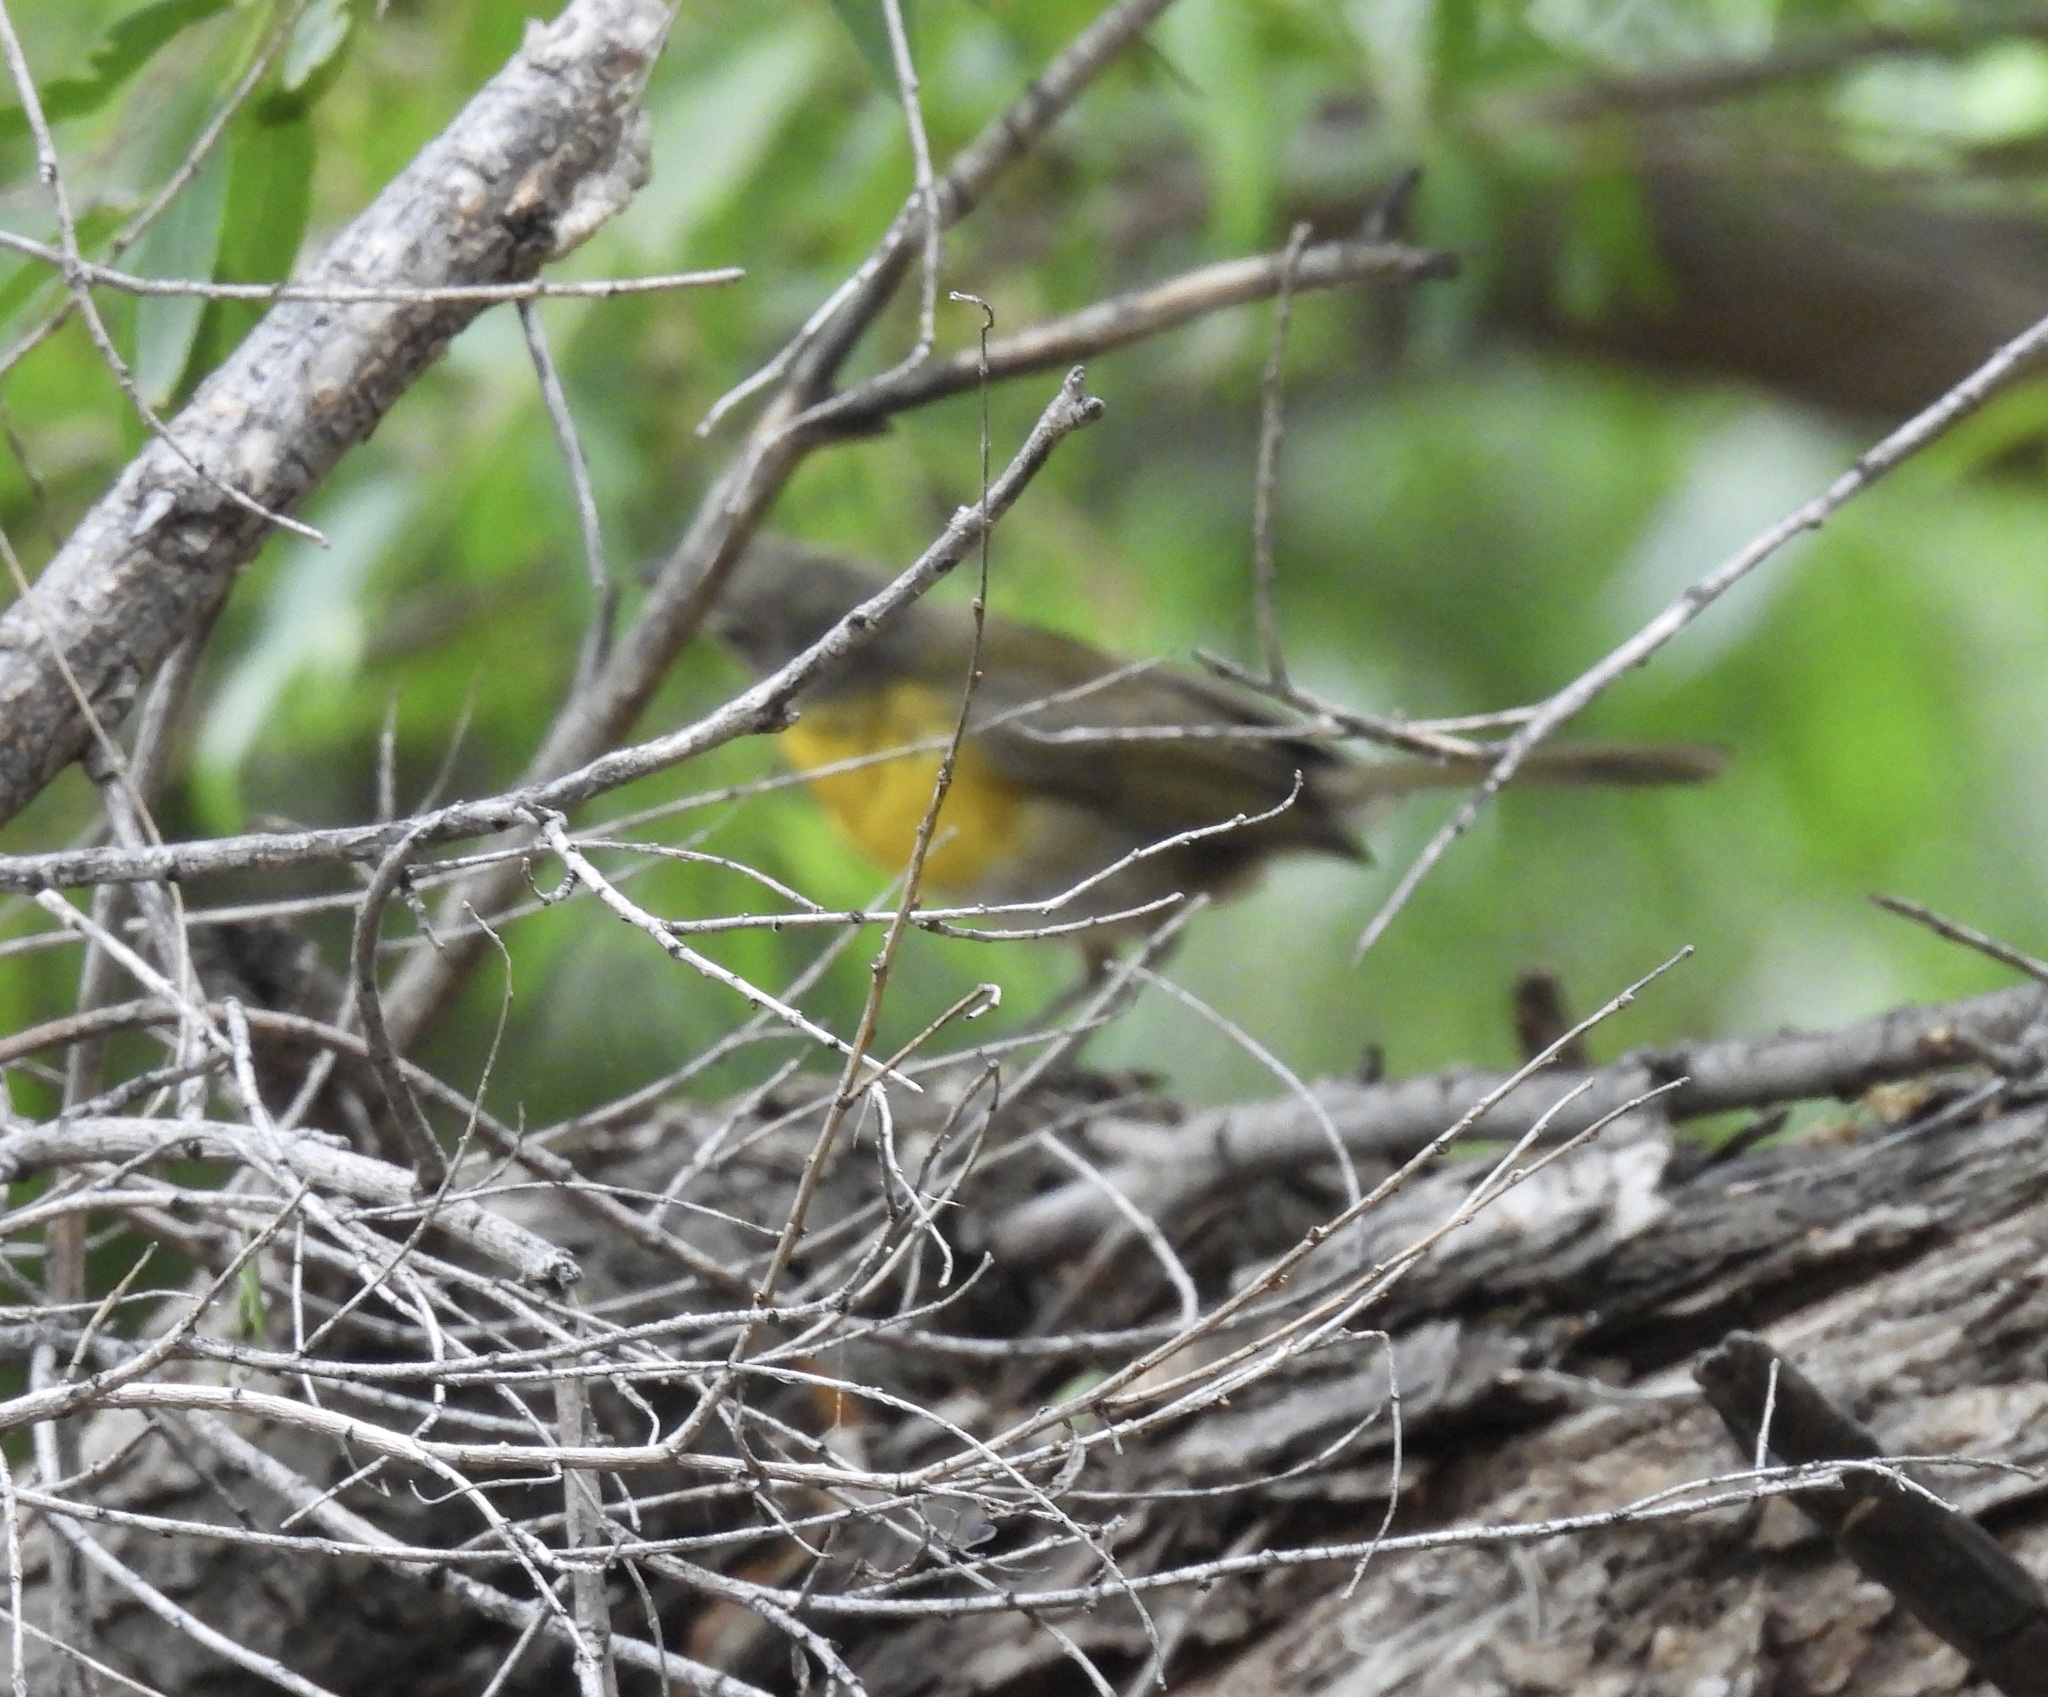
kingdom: Animalia
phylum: Chordata
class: Aves
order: Passeriformes
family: Parulidae
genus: Icteria
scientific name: Icteria virens
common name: Yellow-breasted chat
